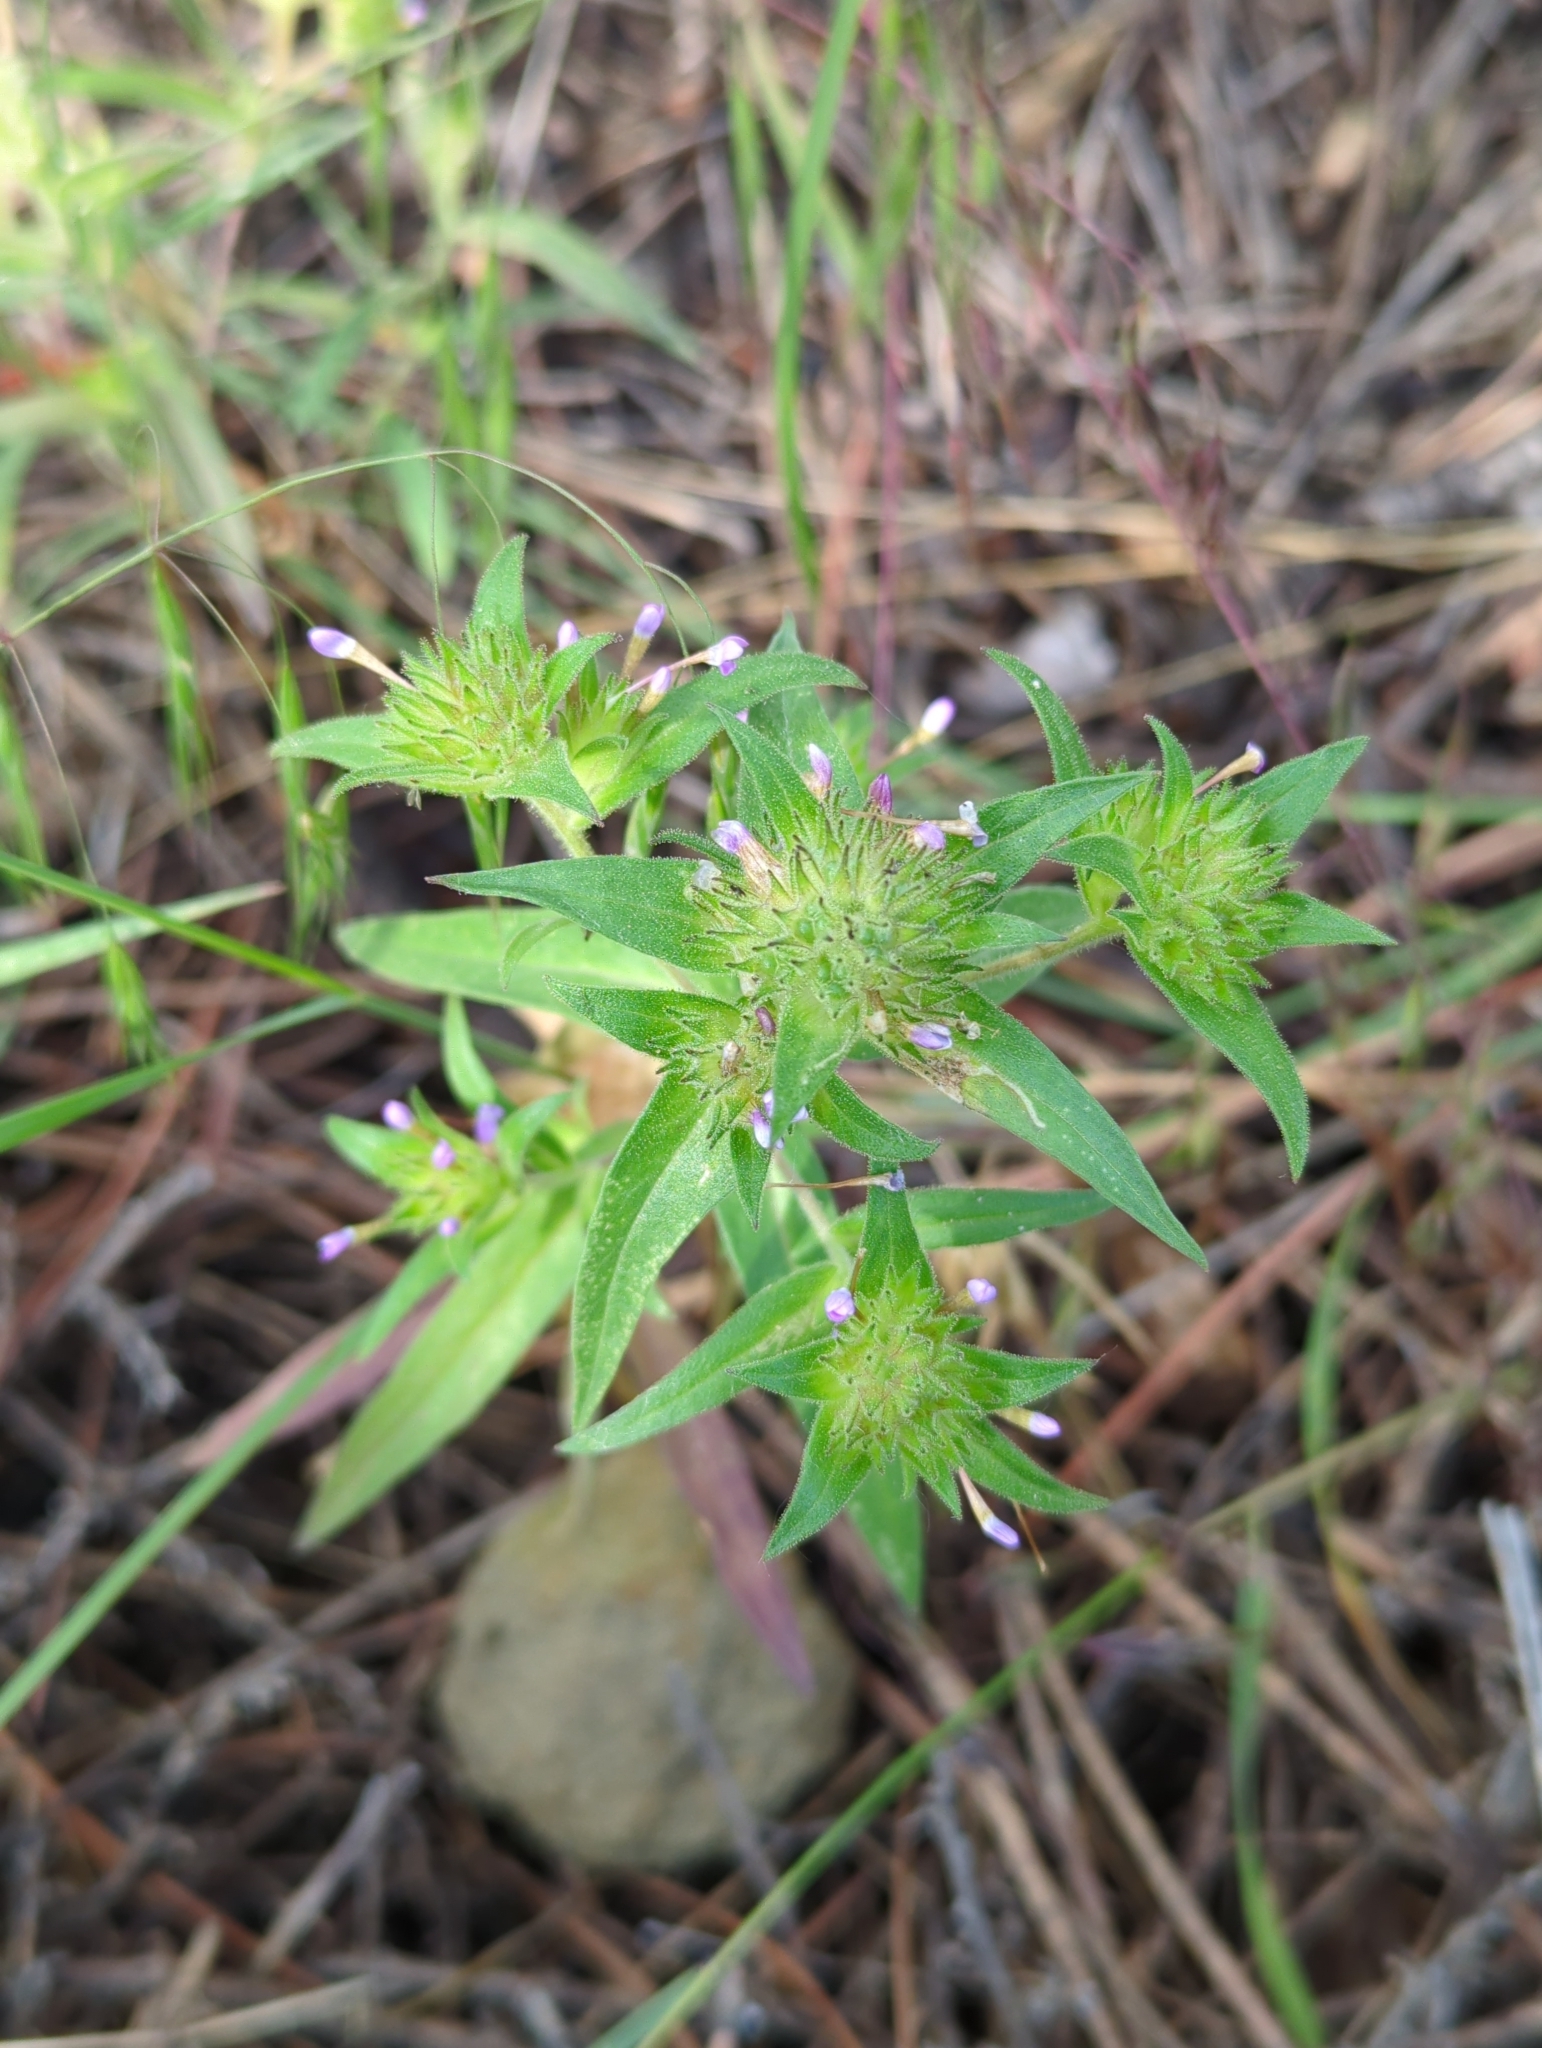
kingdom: Plantae
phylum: Tracheophyta
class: Magnoliopsida
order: Ericales
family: Polemoniaceae
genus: Collomia
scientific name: Collomia linearis
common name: Tiny trumpet
